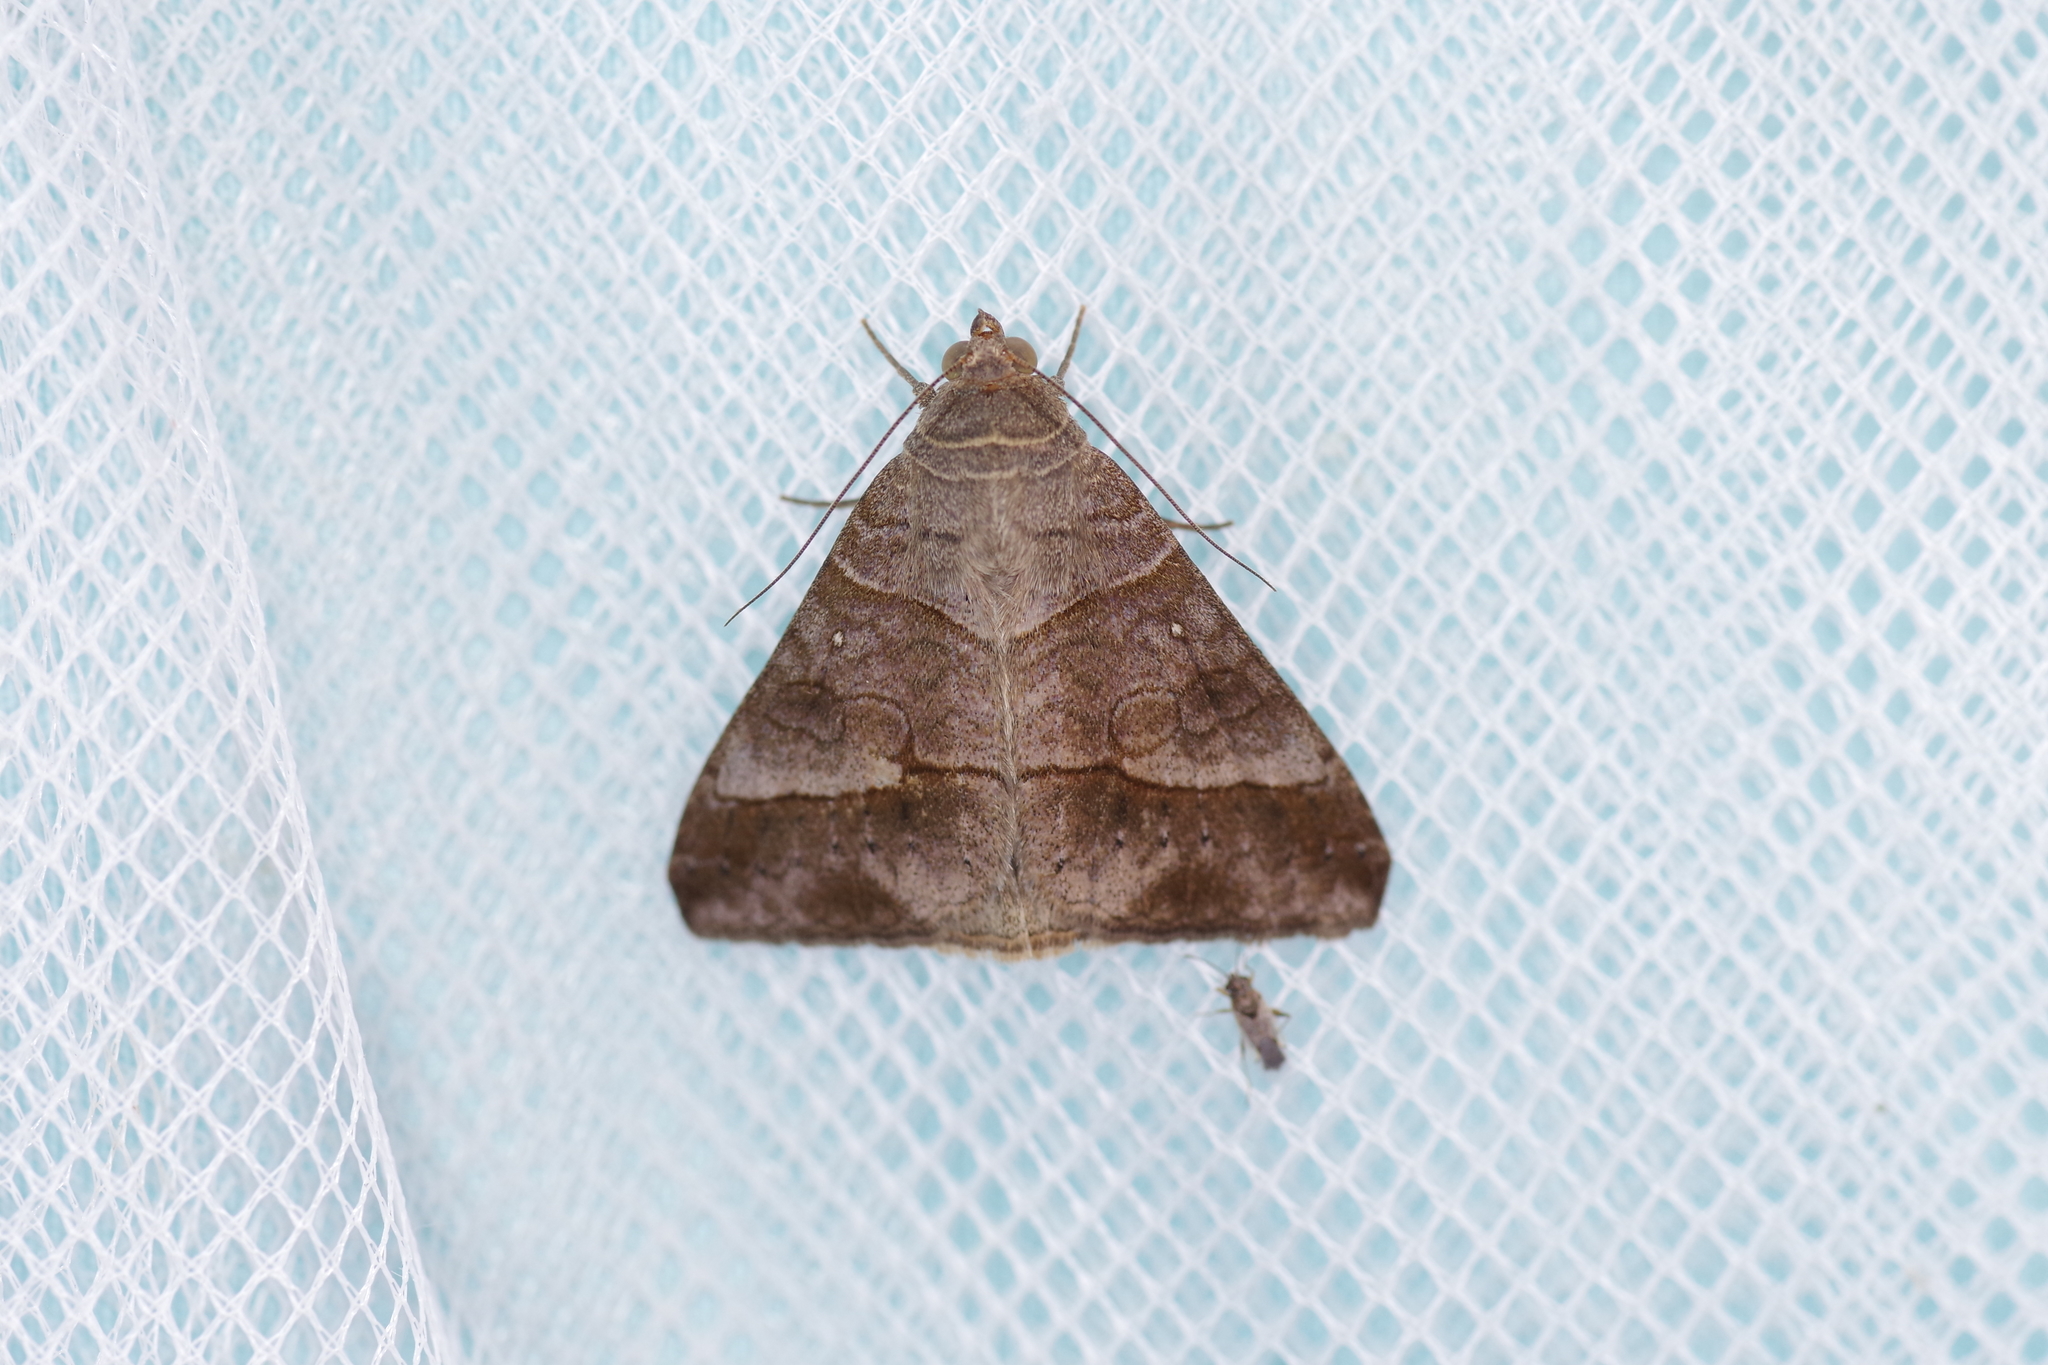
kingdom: Animalia
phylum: Arthropoda
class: Insecta
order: Lepidoptera
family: Erebidae
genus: Mocis
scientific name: Mocis latipes
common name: Striped grass looper
